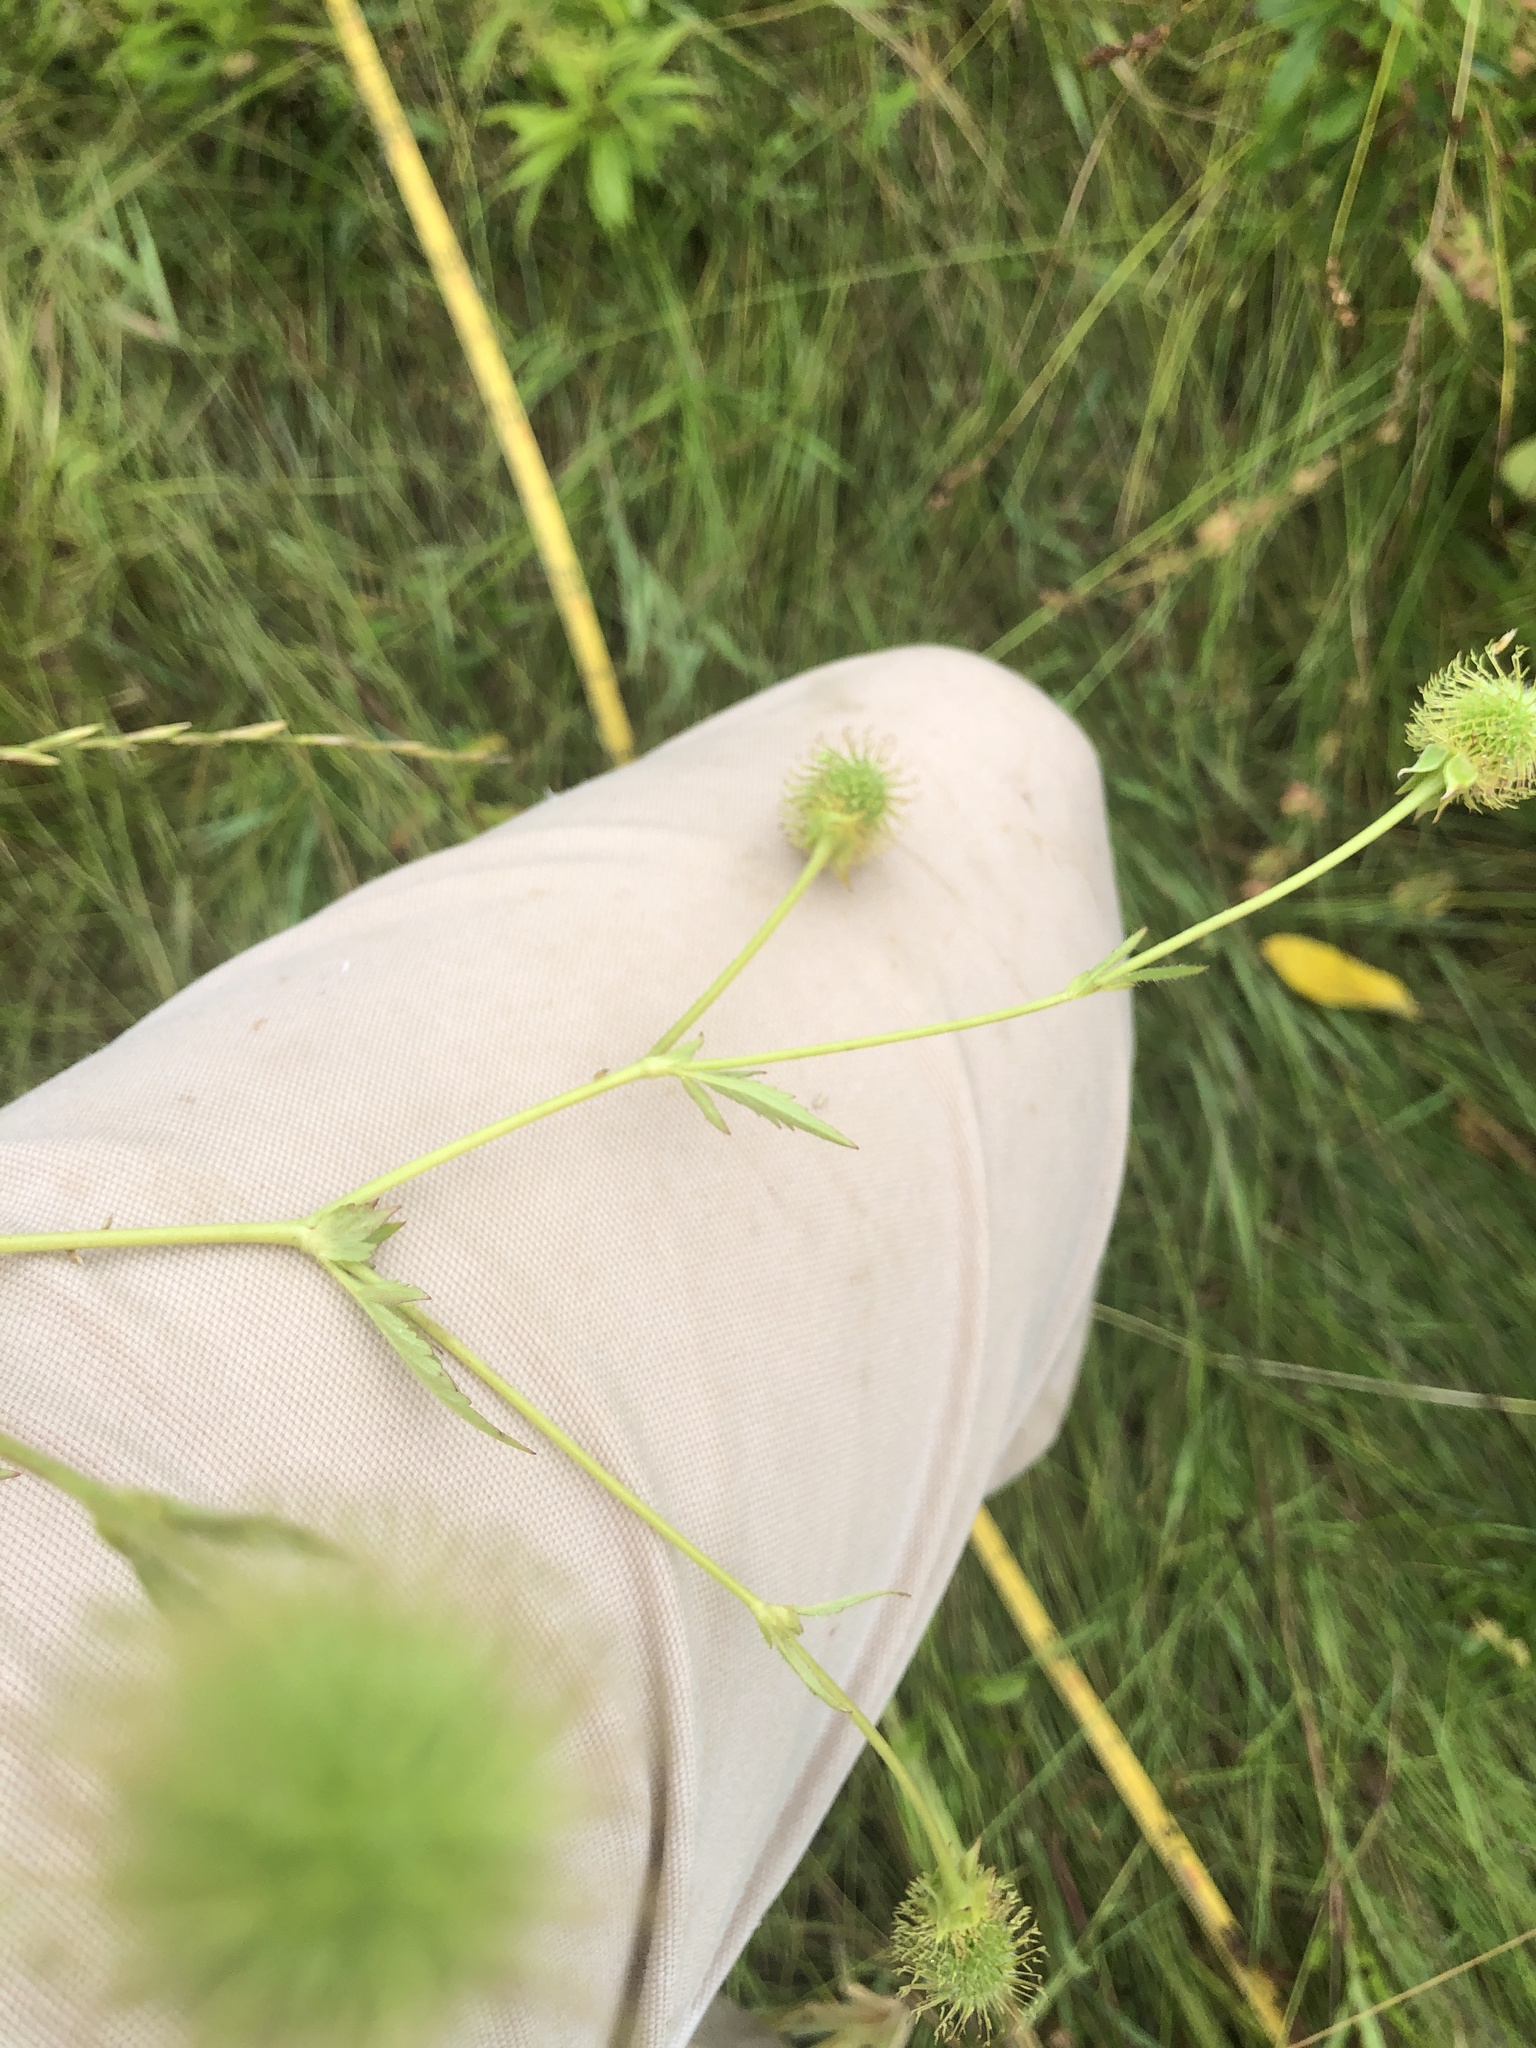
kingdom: Plantae
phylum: Tracheophyta
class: Magnoliopsida
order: Rosales
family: Rosaceae
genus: Geum
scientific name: Geum aleppicum
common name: Yellow avens
